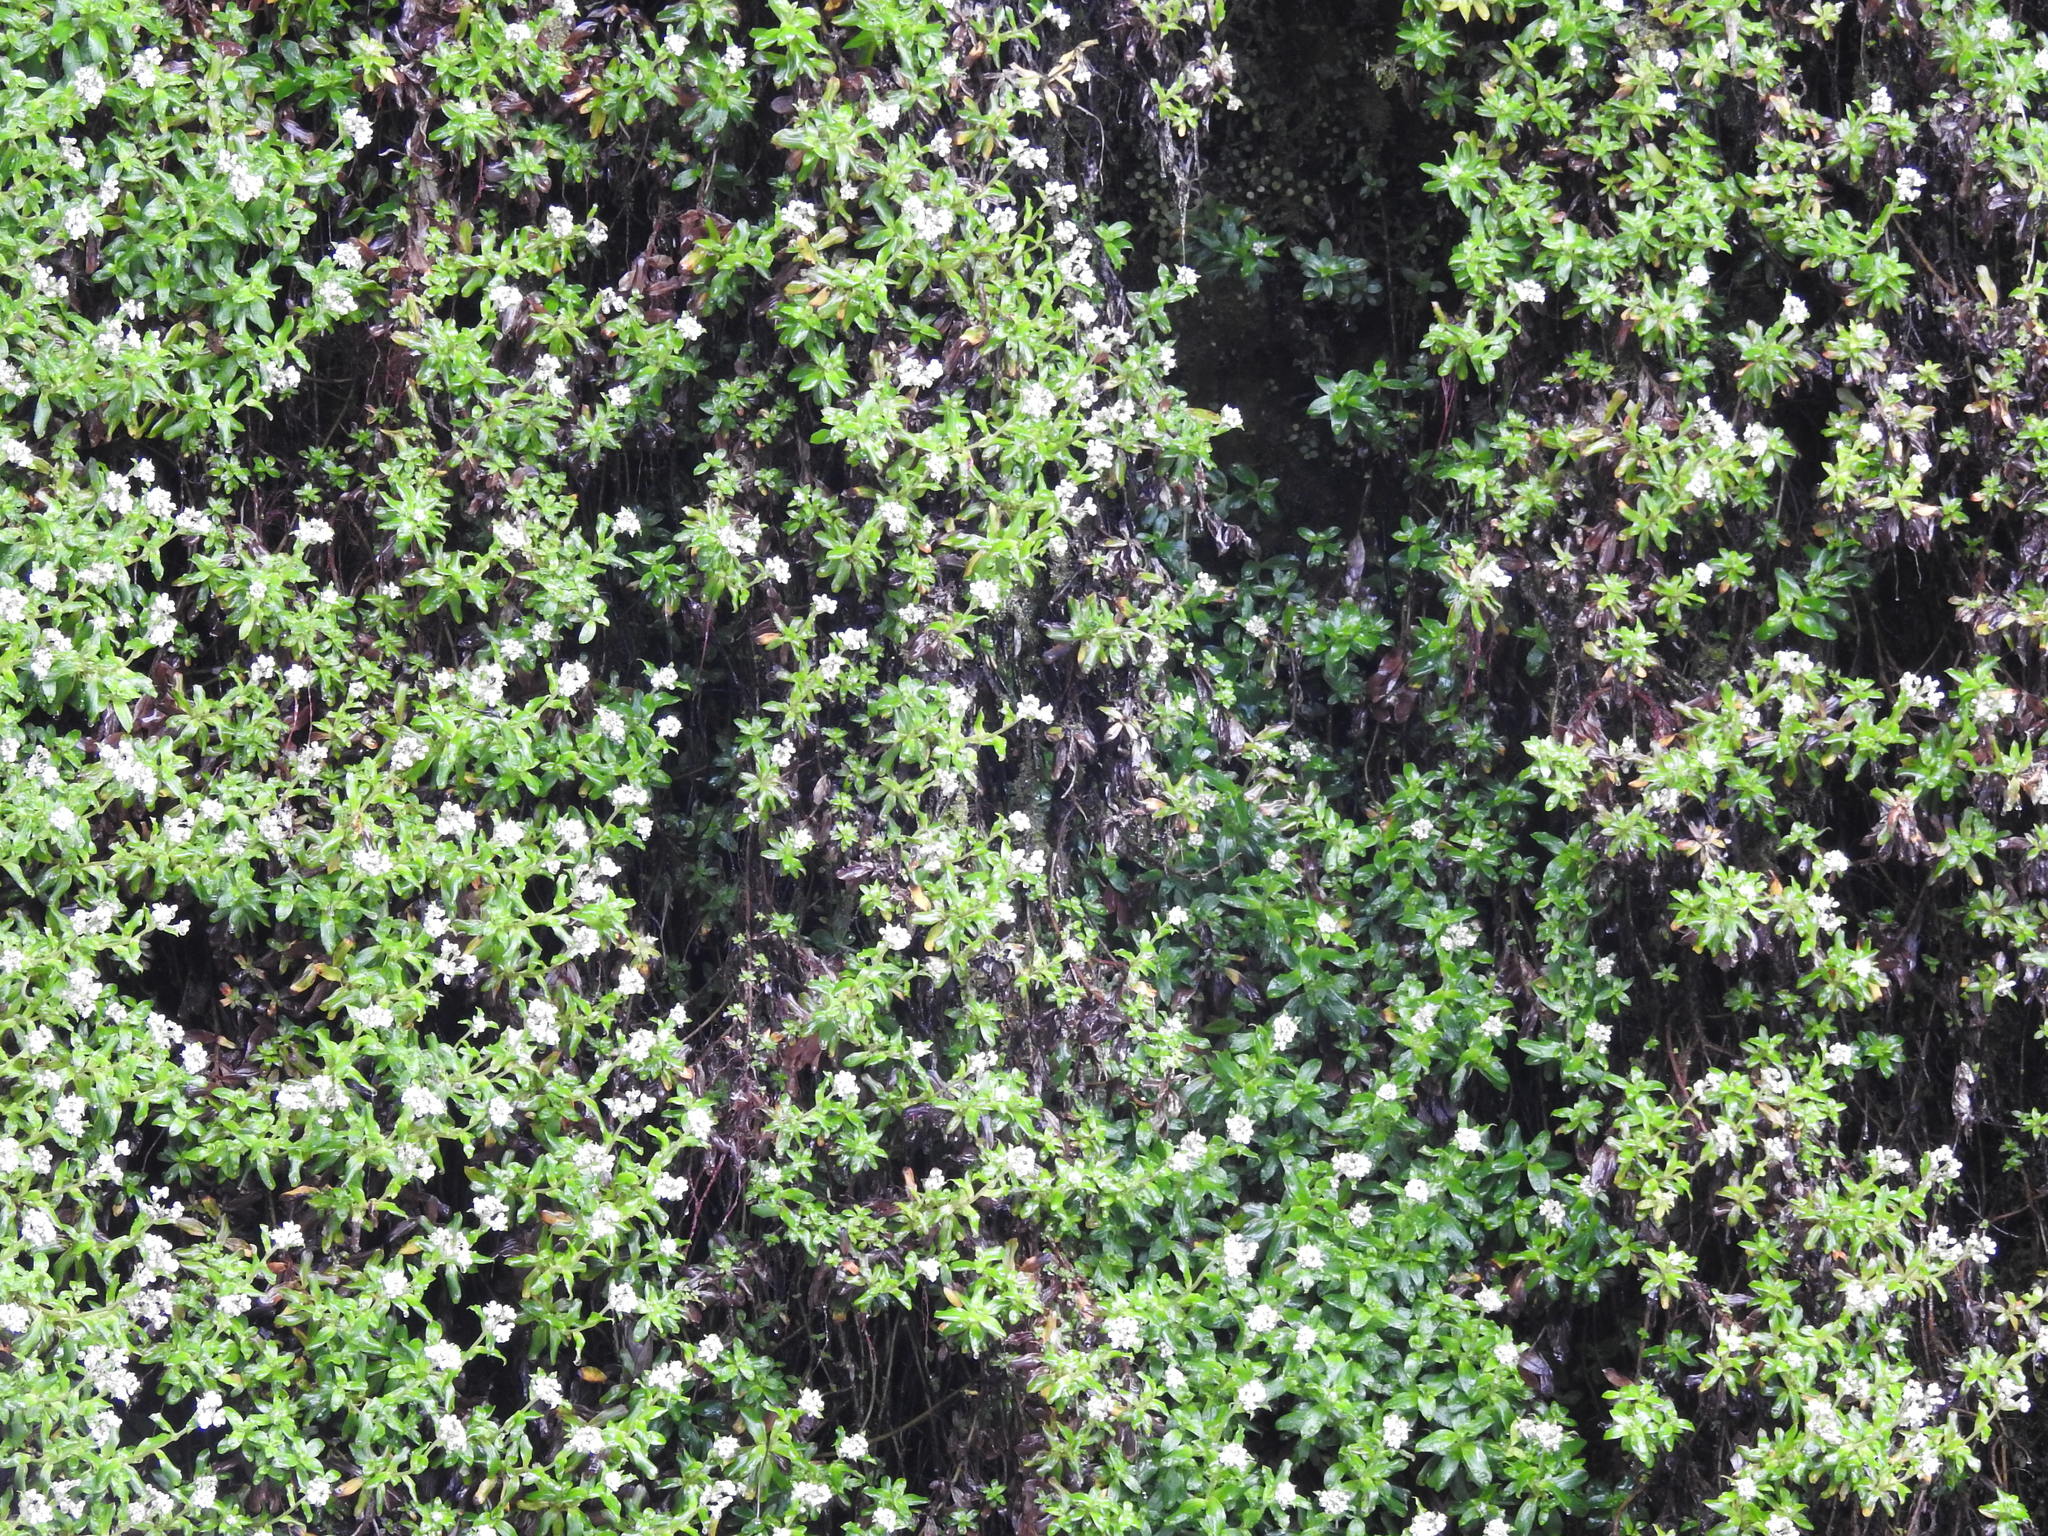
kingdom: Plantae
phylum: Tracheophyta
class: Magnoliopsida
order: Asterales
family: Asteraceae
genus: Anaphalioides
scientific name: Anaphalioides trinervis
